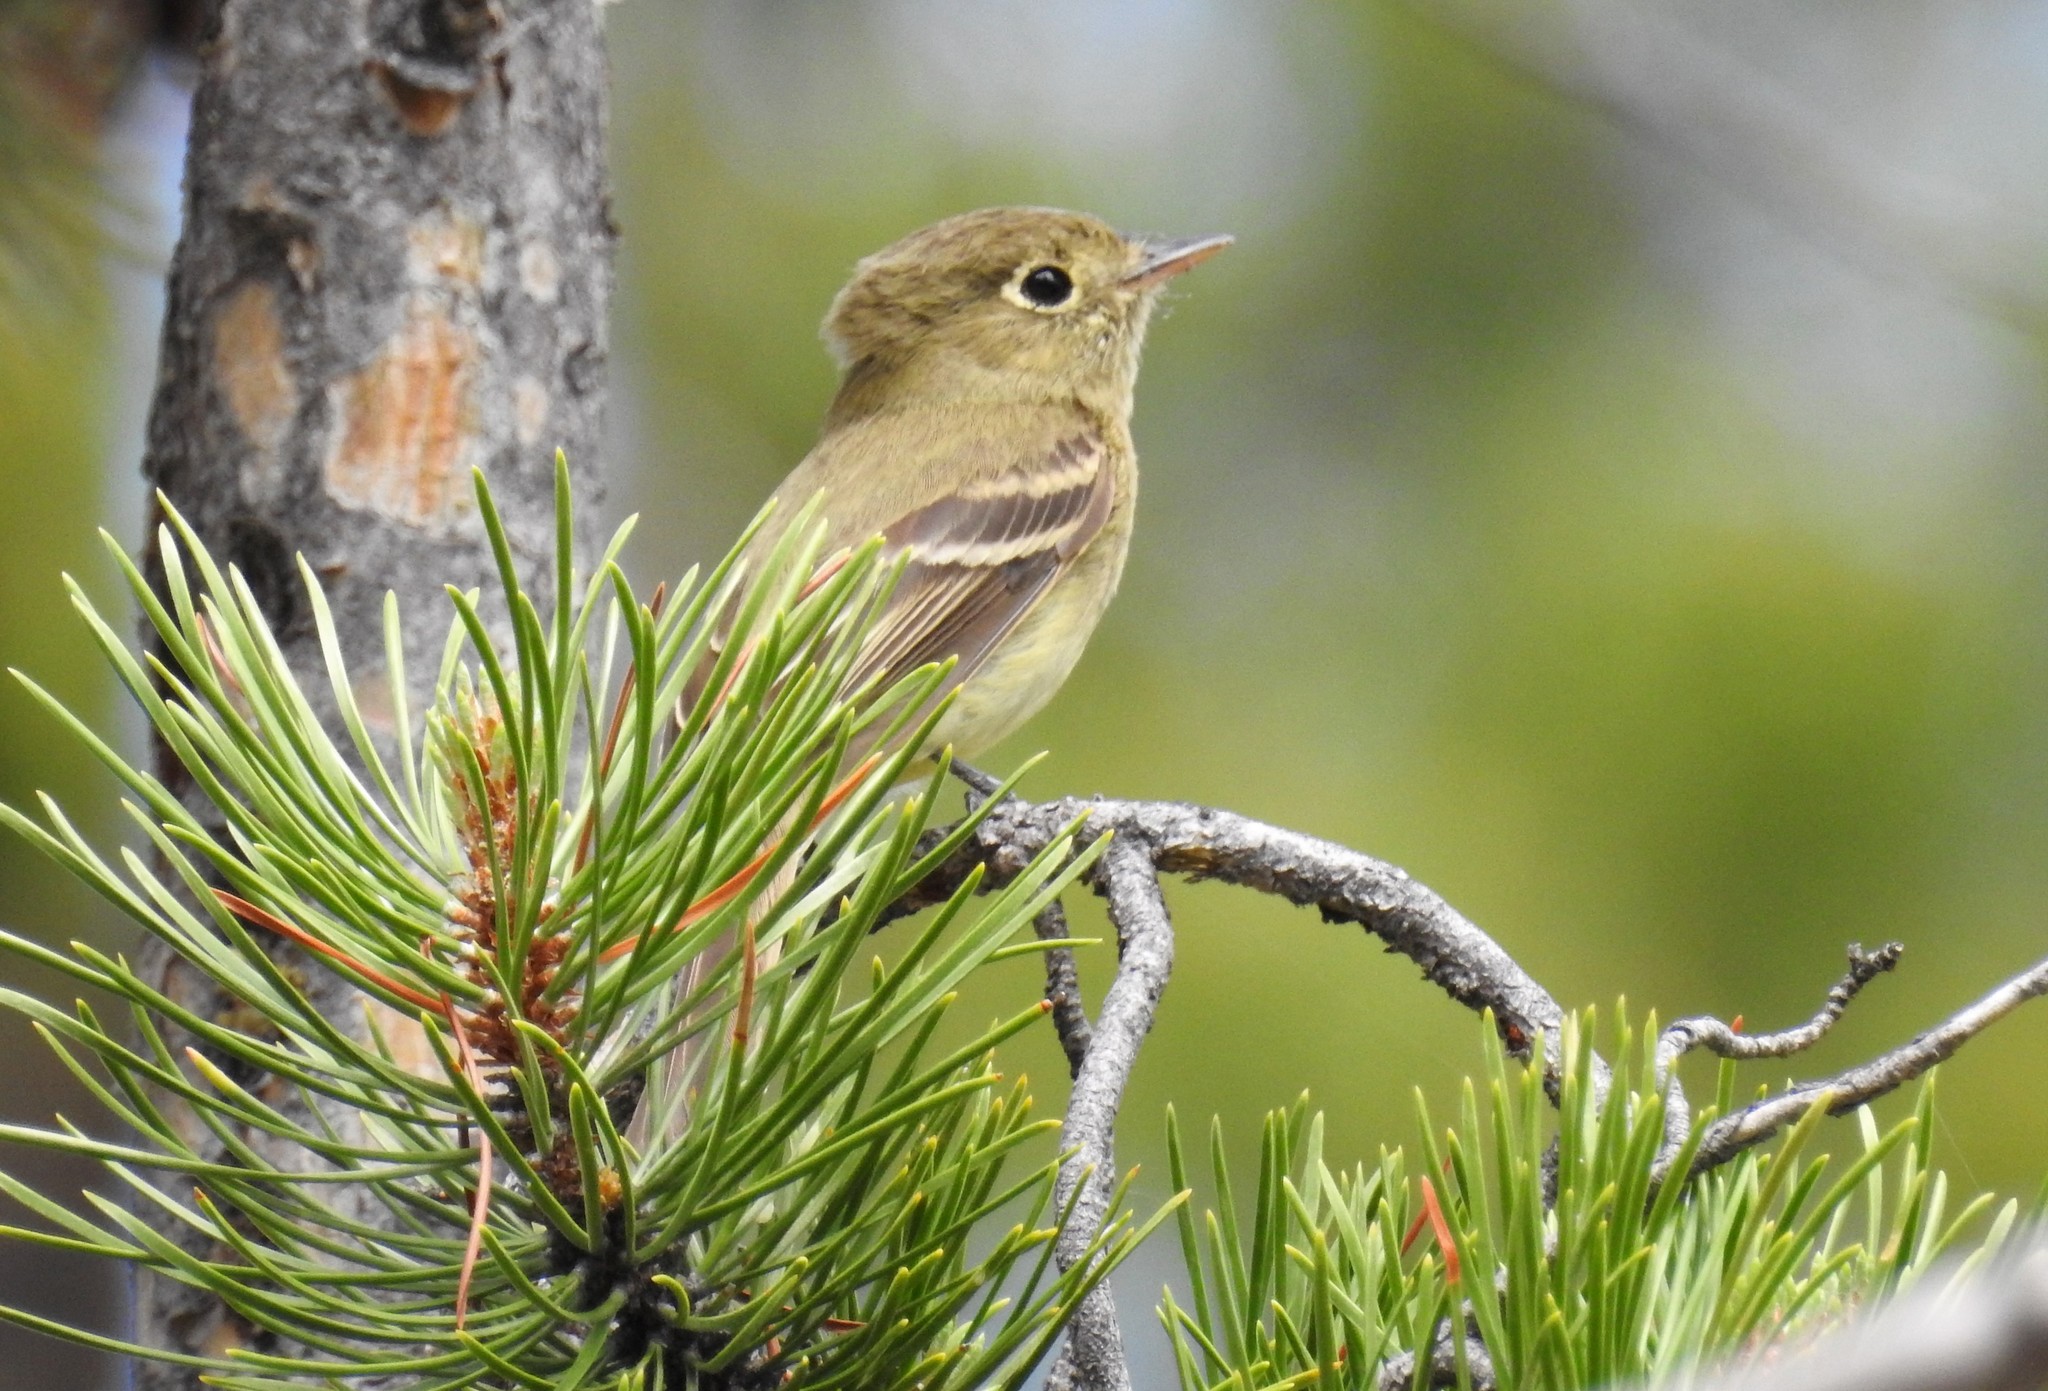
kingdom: Animalia
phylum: Chordata
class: Aves
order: Passeriformes
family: Tyrannidae
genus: Empidonax
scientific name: Empidonax difficilis
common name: Pacific-slope flycatcher
